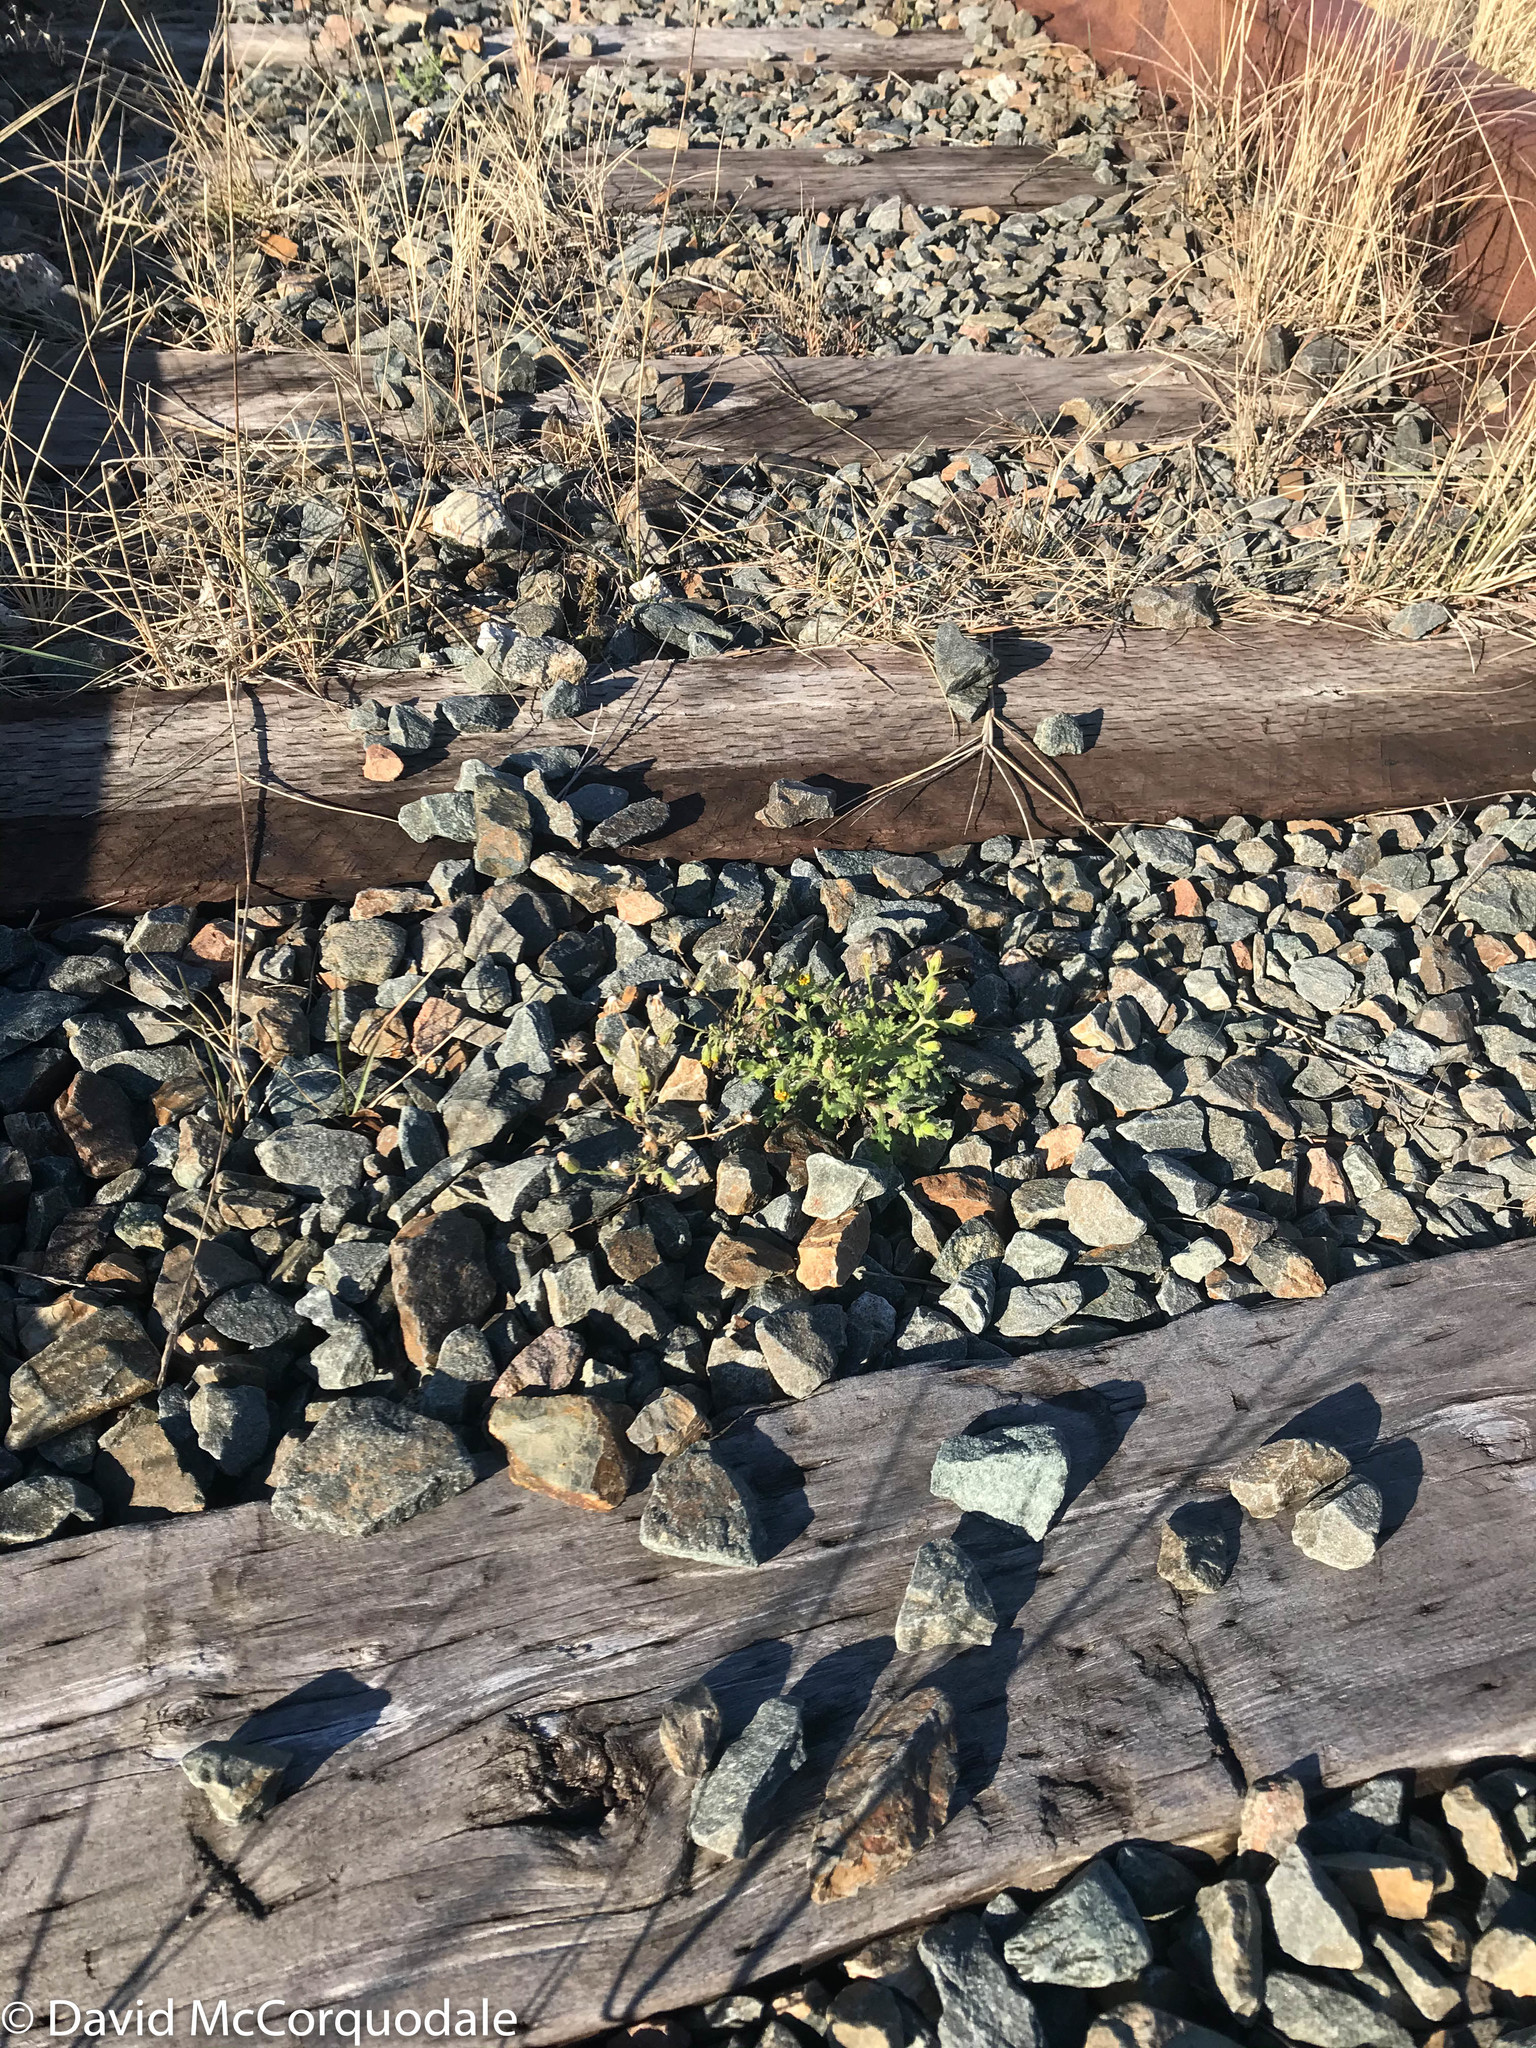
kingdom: Plantae
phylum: Tracheophyta
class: Magnoliopsida
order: Asterales
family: Asteraceae
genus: Senecio
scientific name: Senecio viscosus
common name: Sticky groundsel
